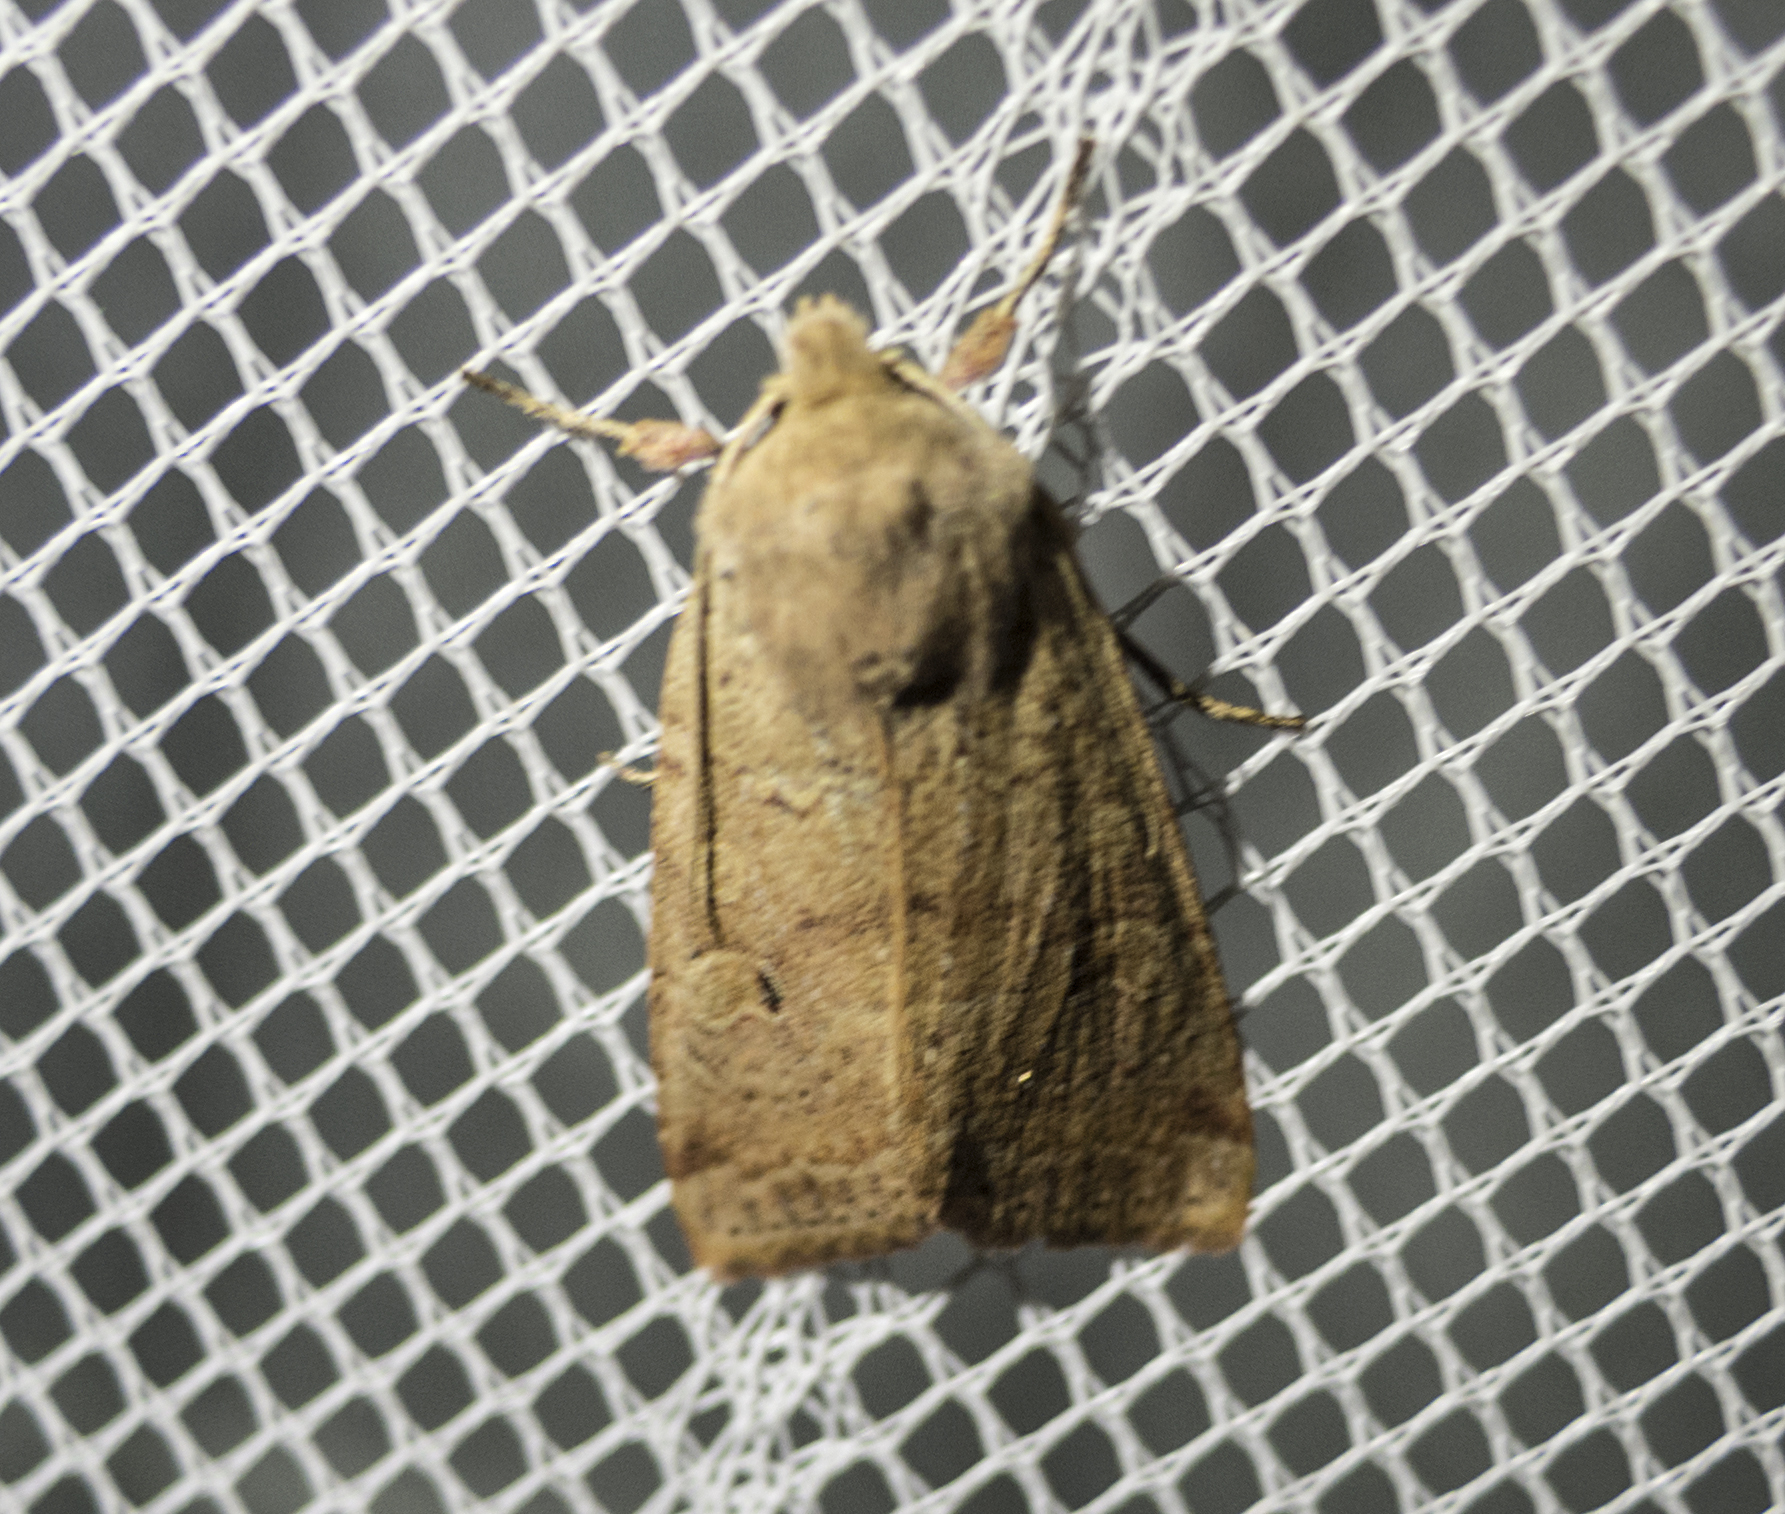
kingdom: Animalia
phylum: Arthropoda
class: Insecta
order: Lepidoptera
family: Noctuidae
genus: Agrochola
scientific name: Agrochola laevis
